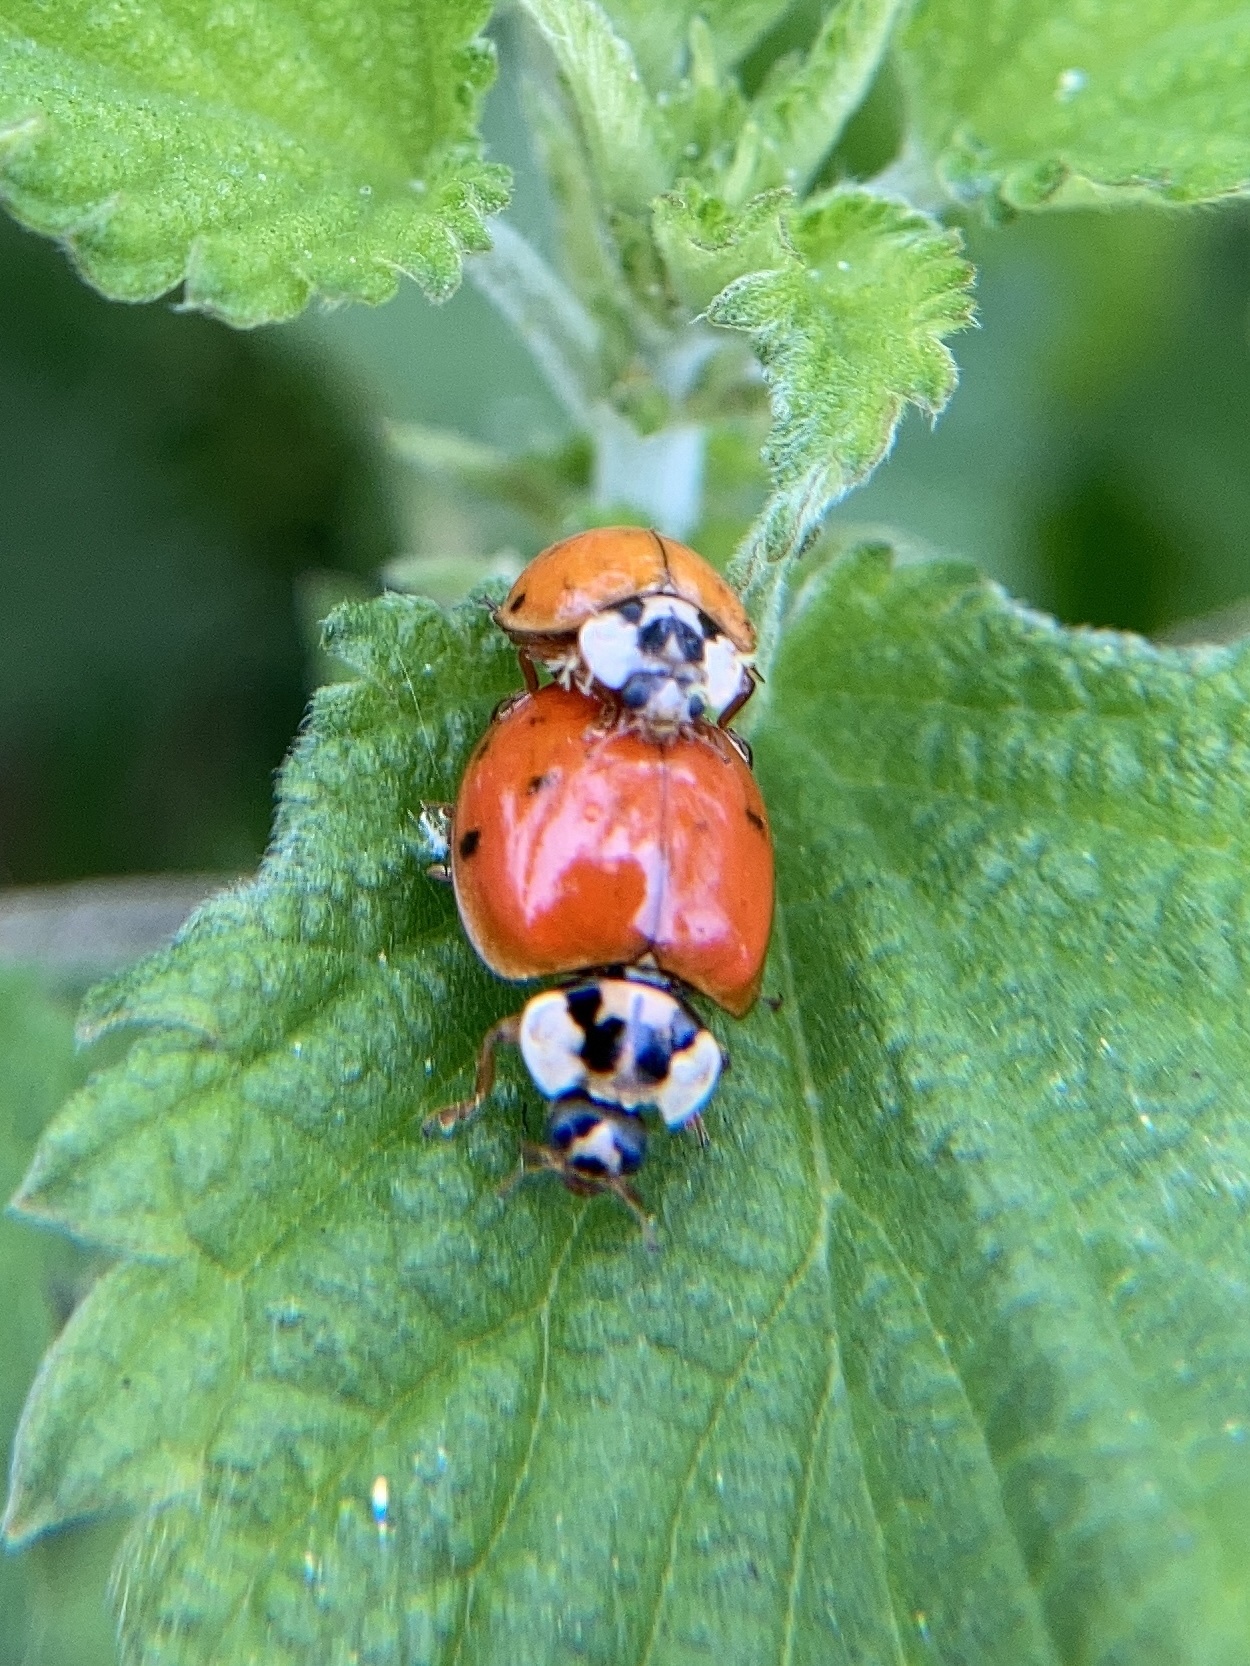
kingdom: Animalia
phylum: Arthropoda
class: Insecta
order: Coleoptera
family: Coccinellidae
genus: Harmonia
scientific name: Harmonia axyridis
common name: Harlequin ladybird
